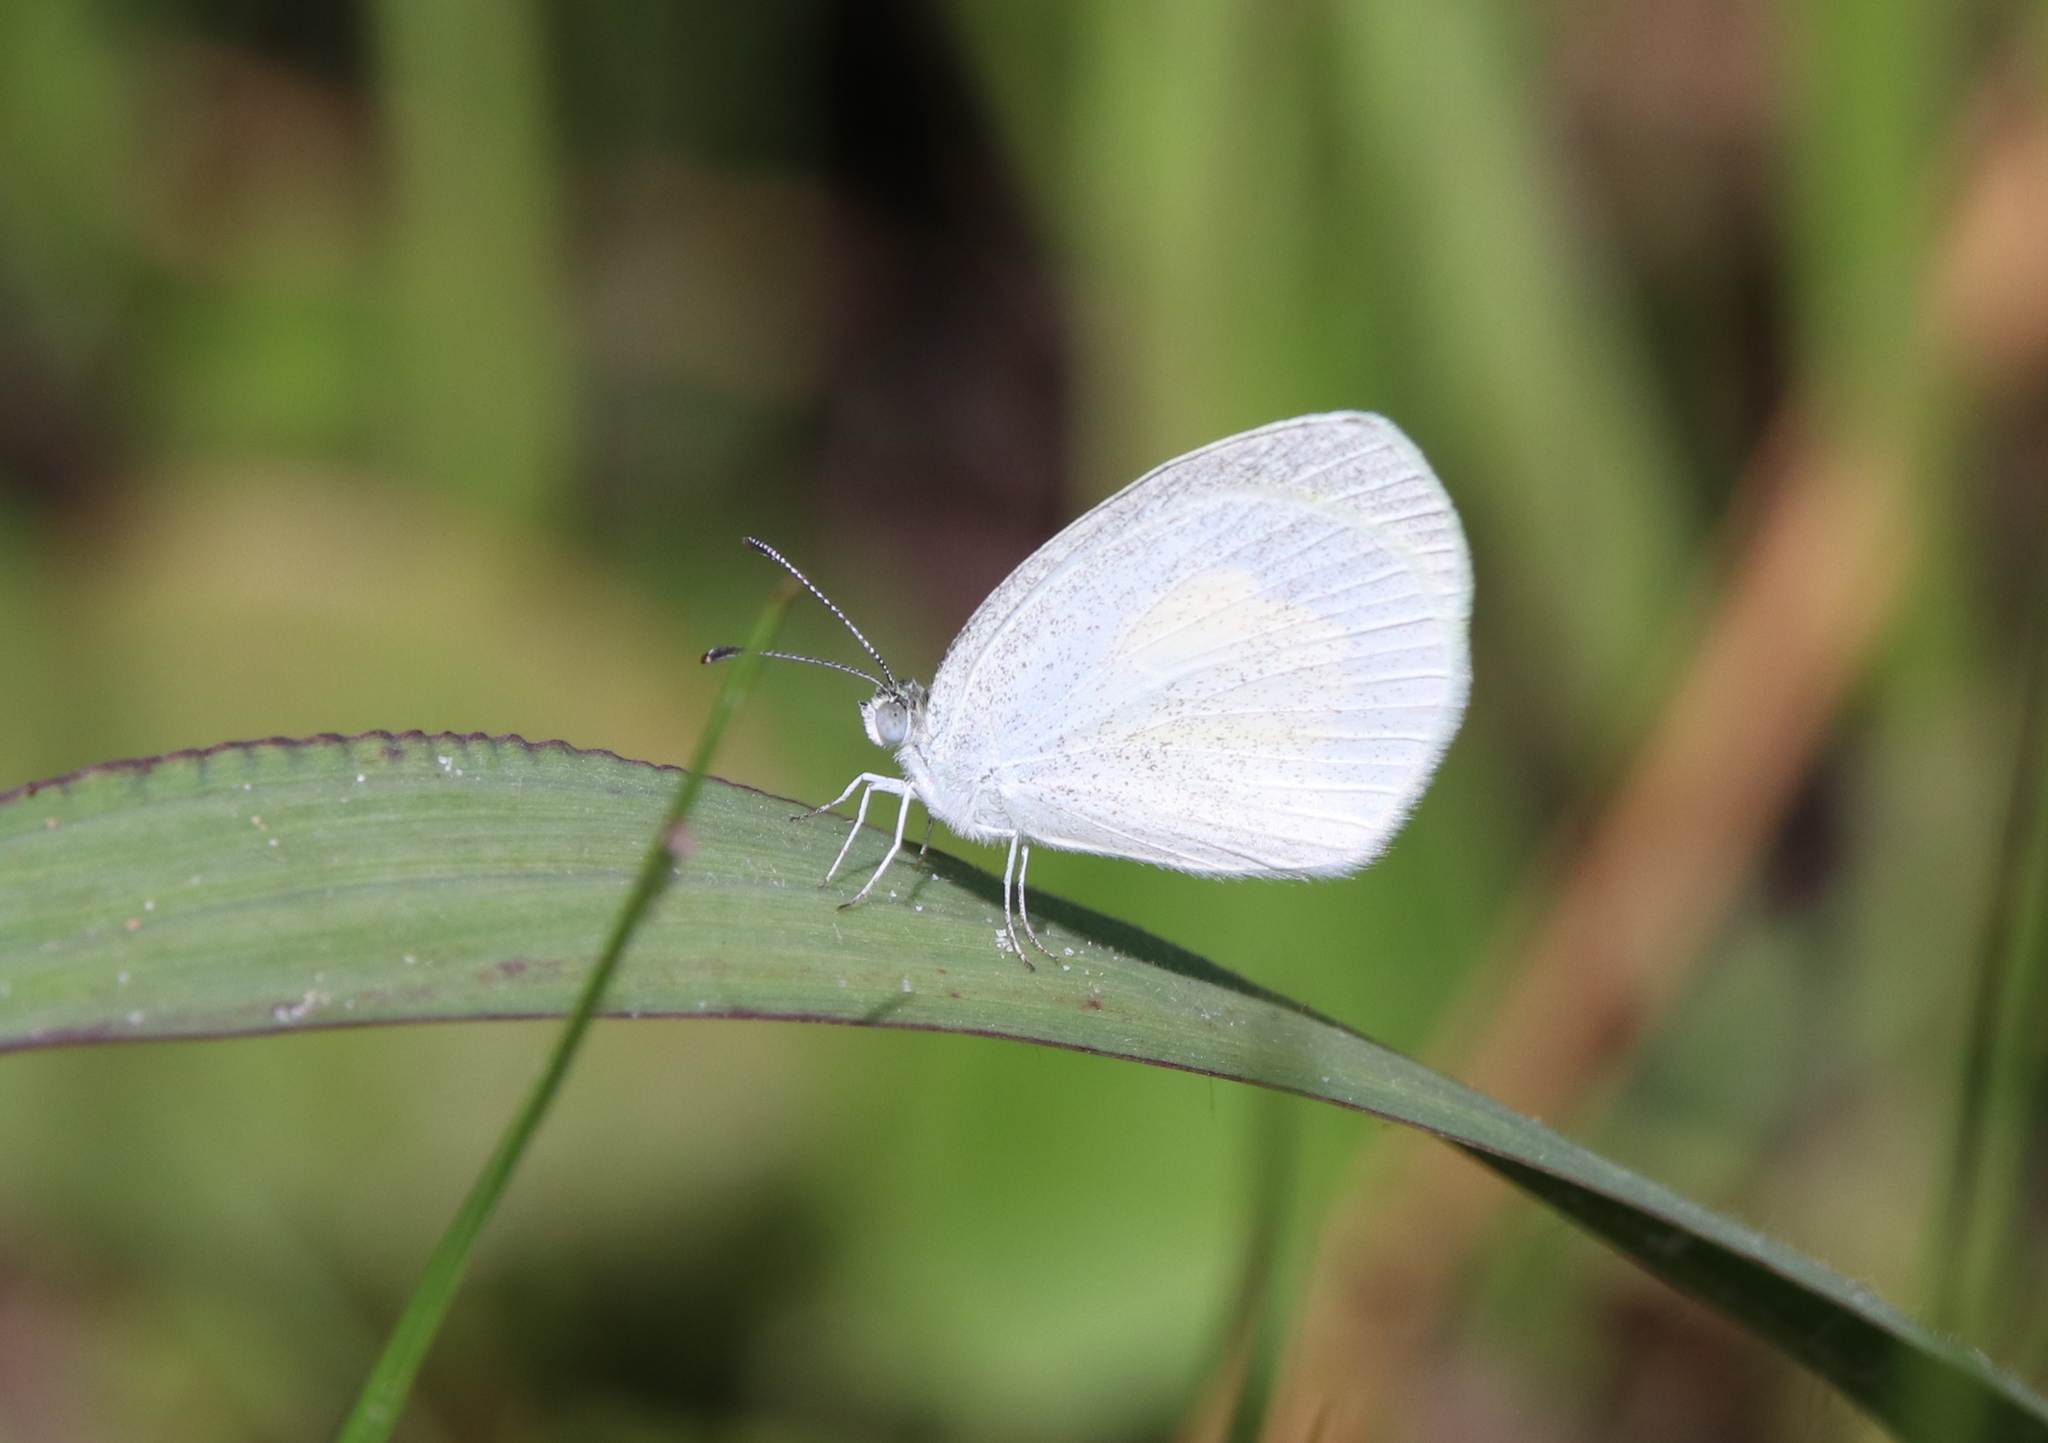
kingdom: Animalia
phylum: Arthropoda
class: Insecta
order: Lepidoptera
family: Pieridae
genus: Eurema
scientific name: Eurema daira
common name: Barred sulphur
